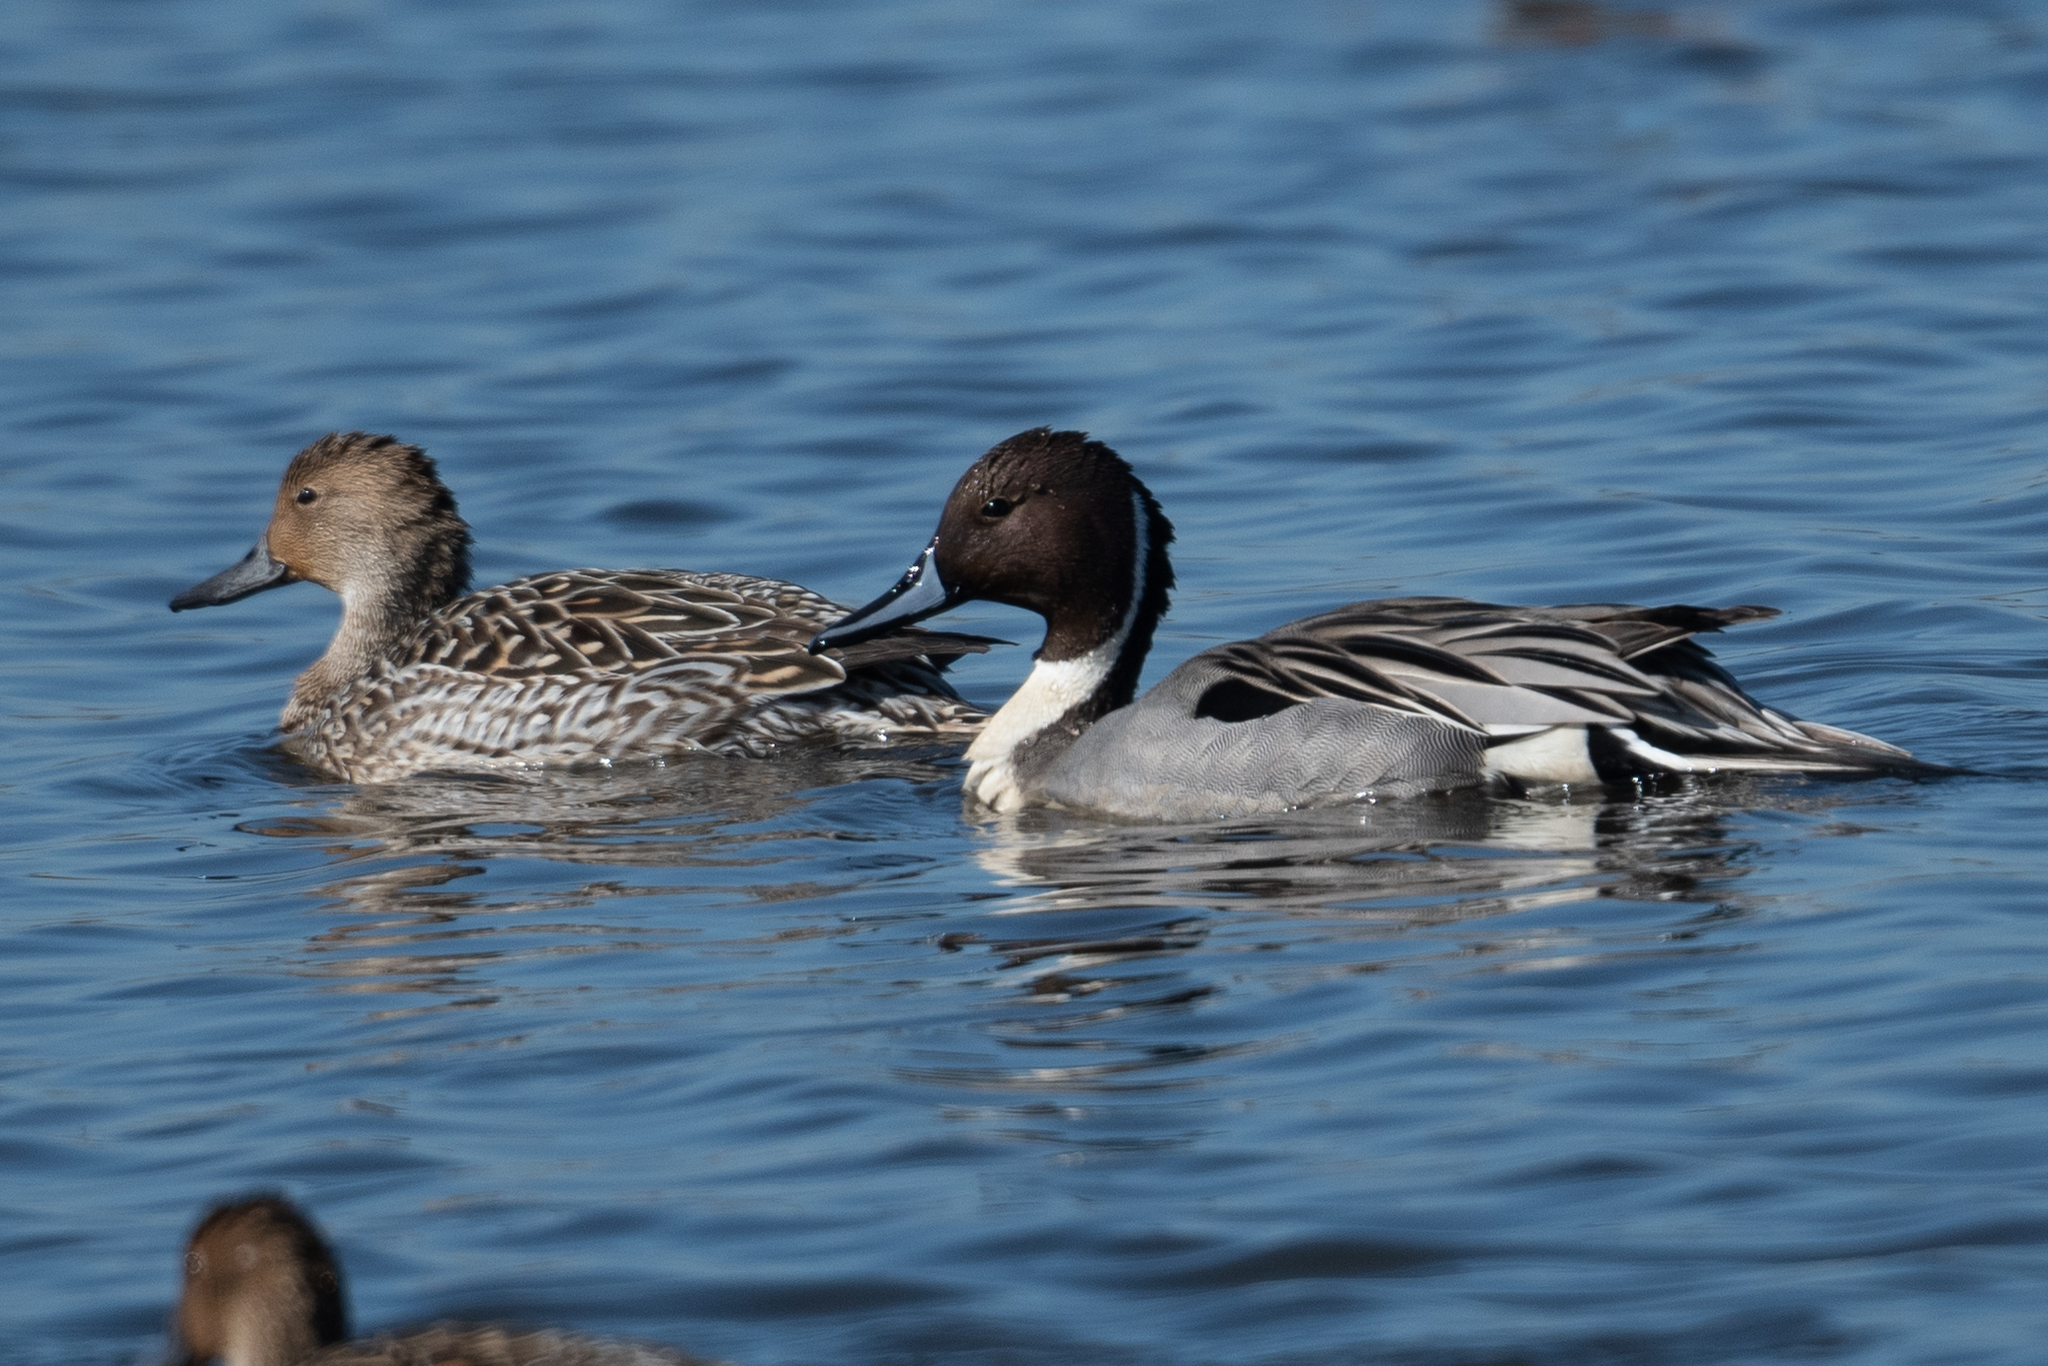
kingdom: Animalia
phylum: Chordata
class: Aves
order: Anseriformes
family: Anatidae
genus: Anas
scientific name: Anas acuta
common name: Northern pintail
